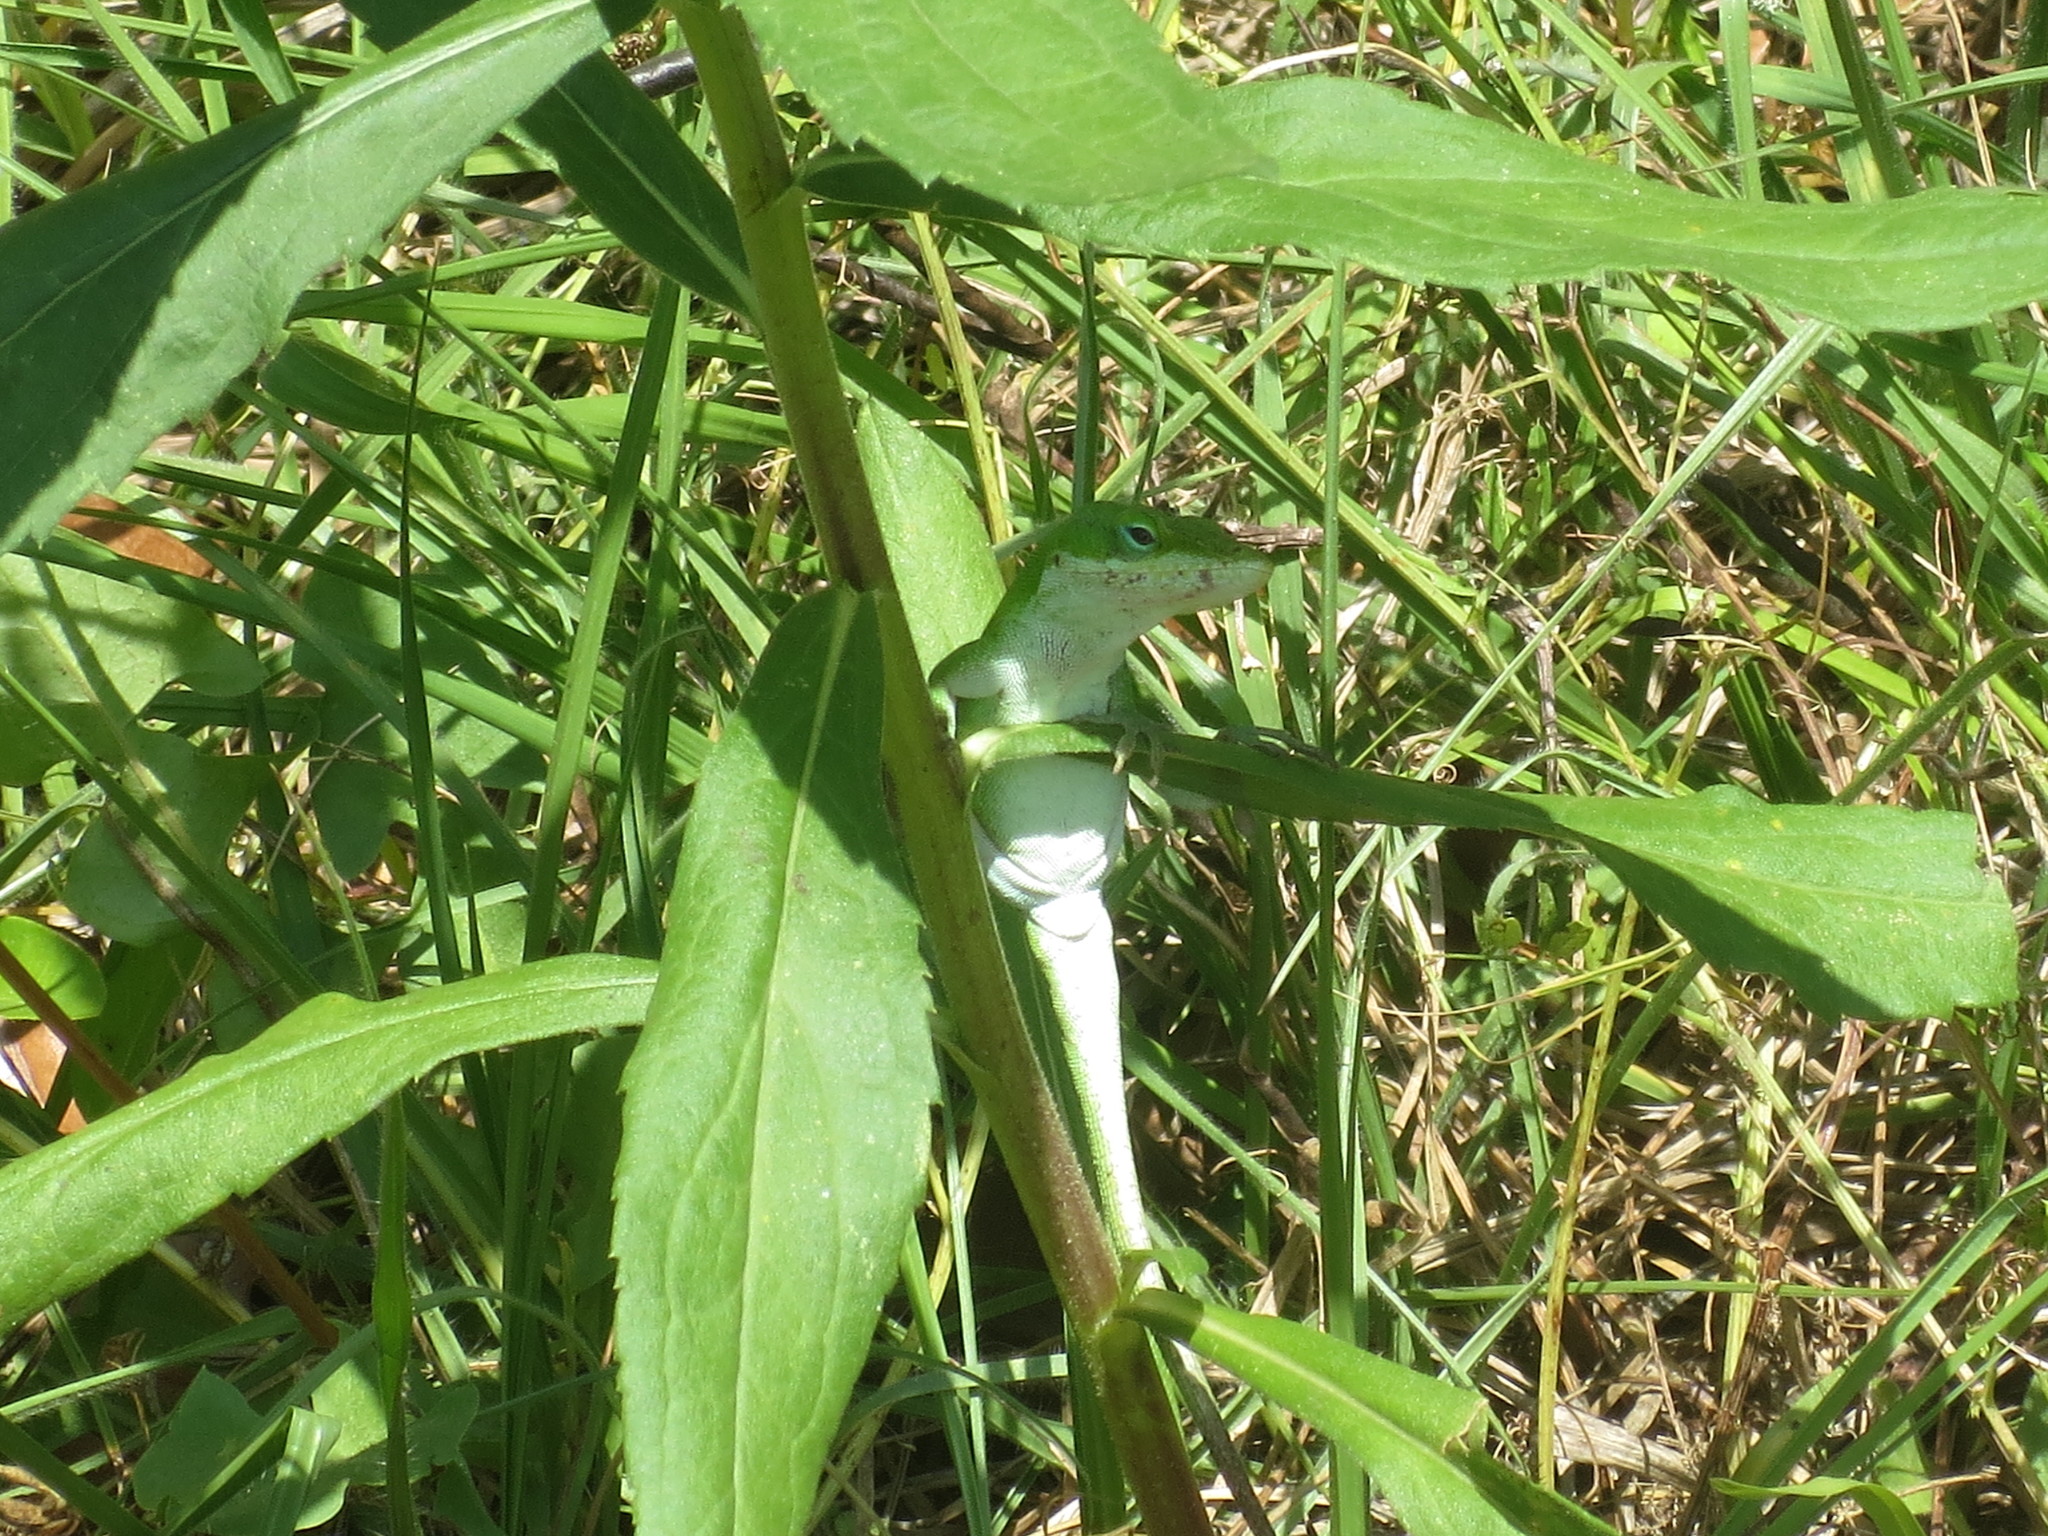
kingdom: Animalia
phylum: Chordata
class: Squamata
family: Dactyloidae
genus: Anolis
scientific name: Anolis carolinensis
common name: Green anole
